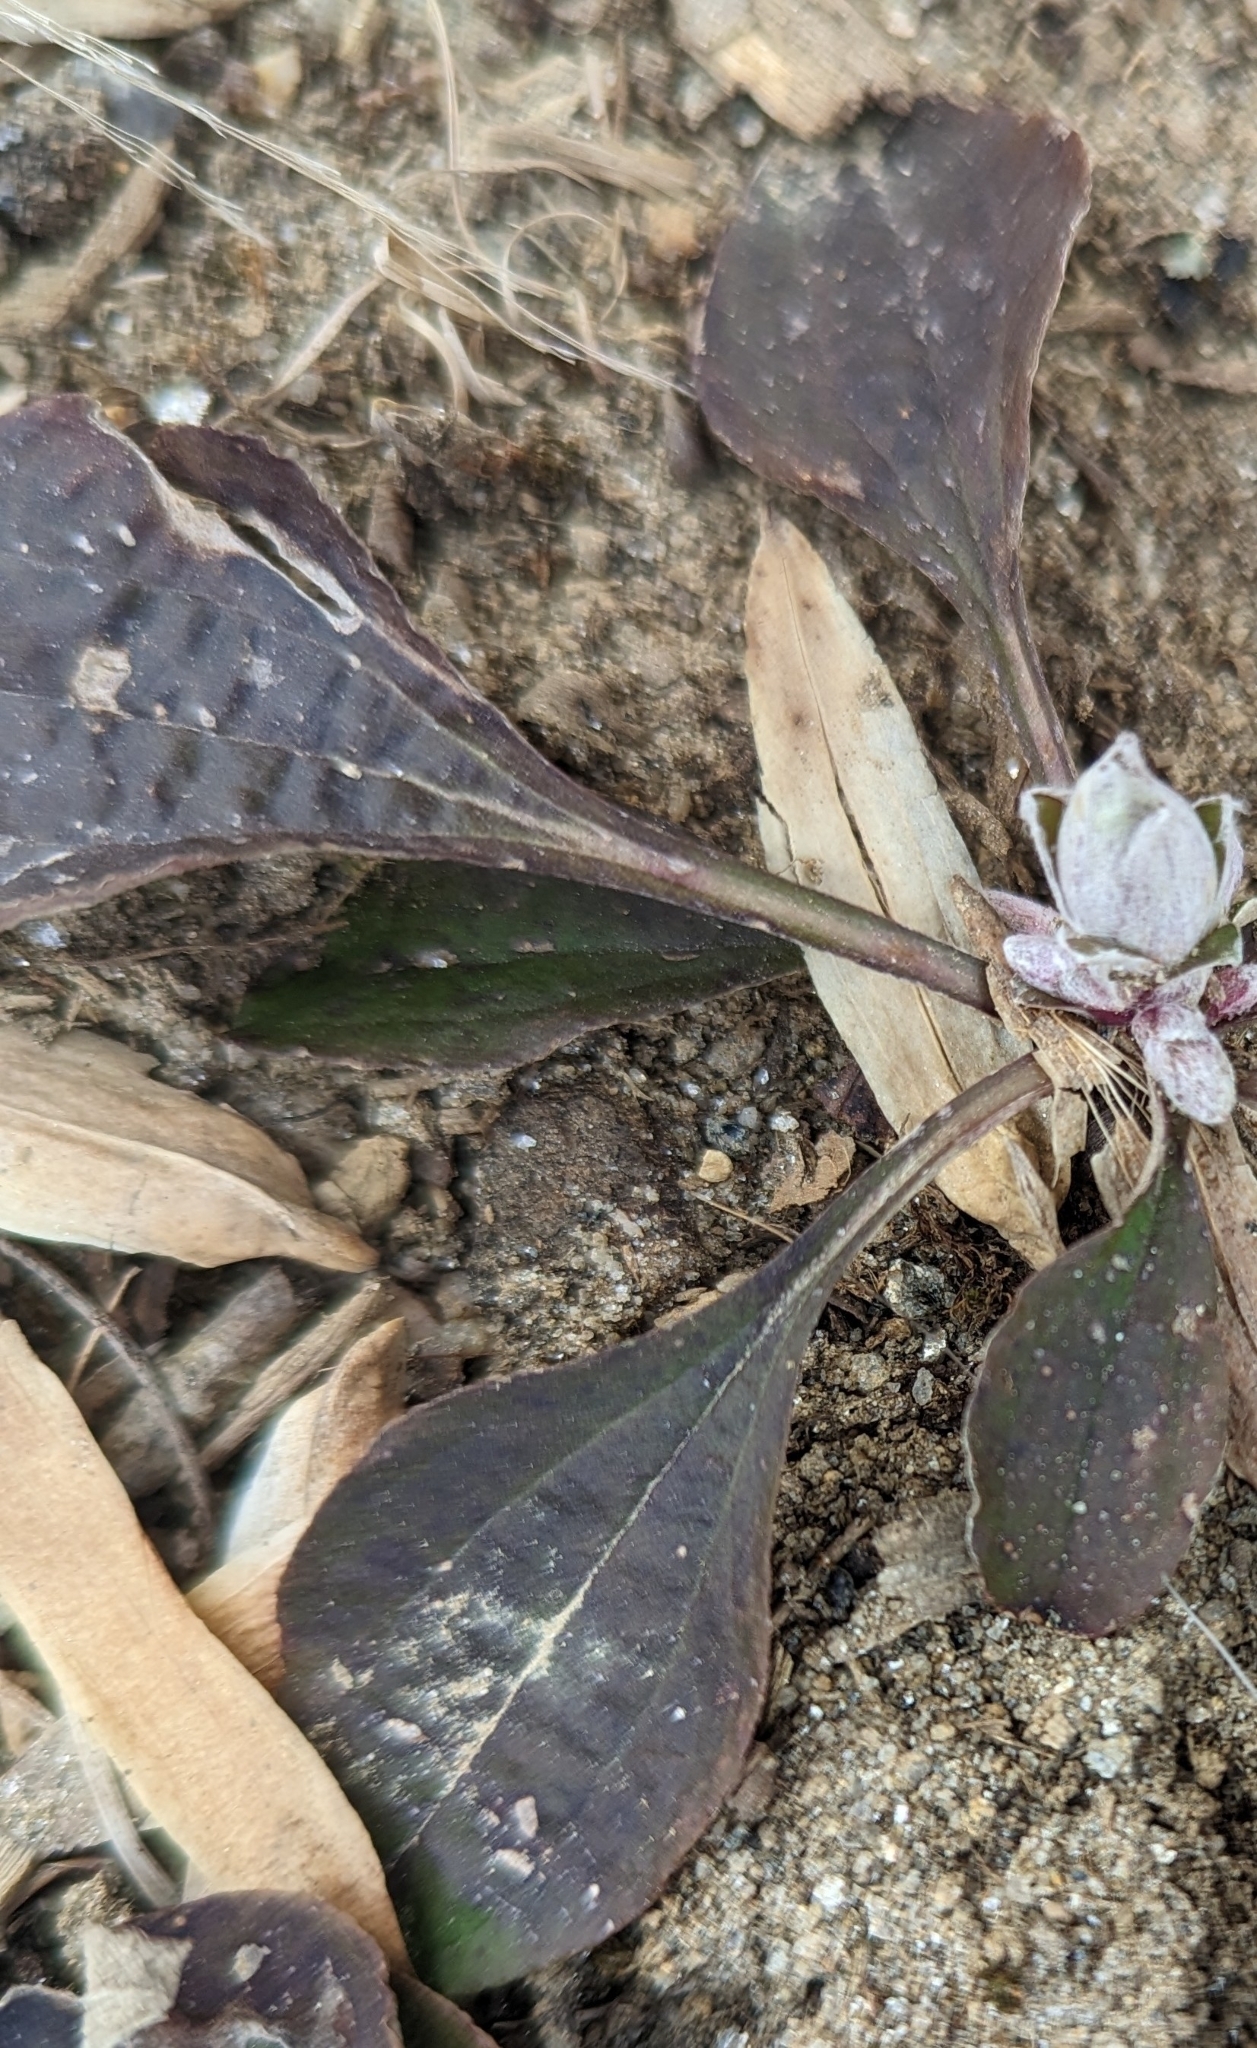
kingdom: Plantae
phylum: Tracheophyta
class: Magnoliopsida
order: Asterales
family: Asteraceae
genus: Antennaria
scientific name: Antennaria plantaginifolia
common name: Plantain-leaved pussytoes
